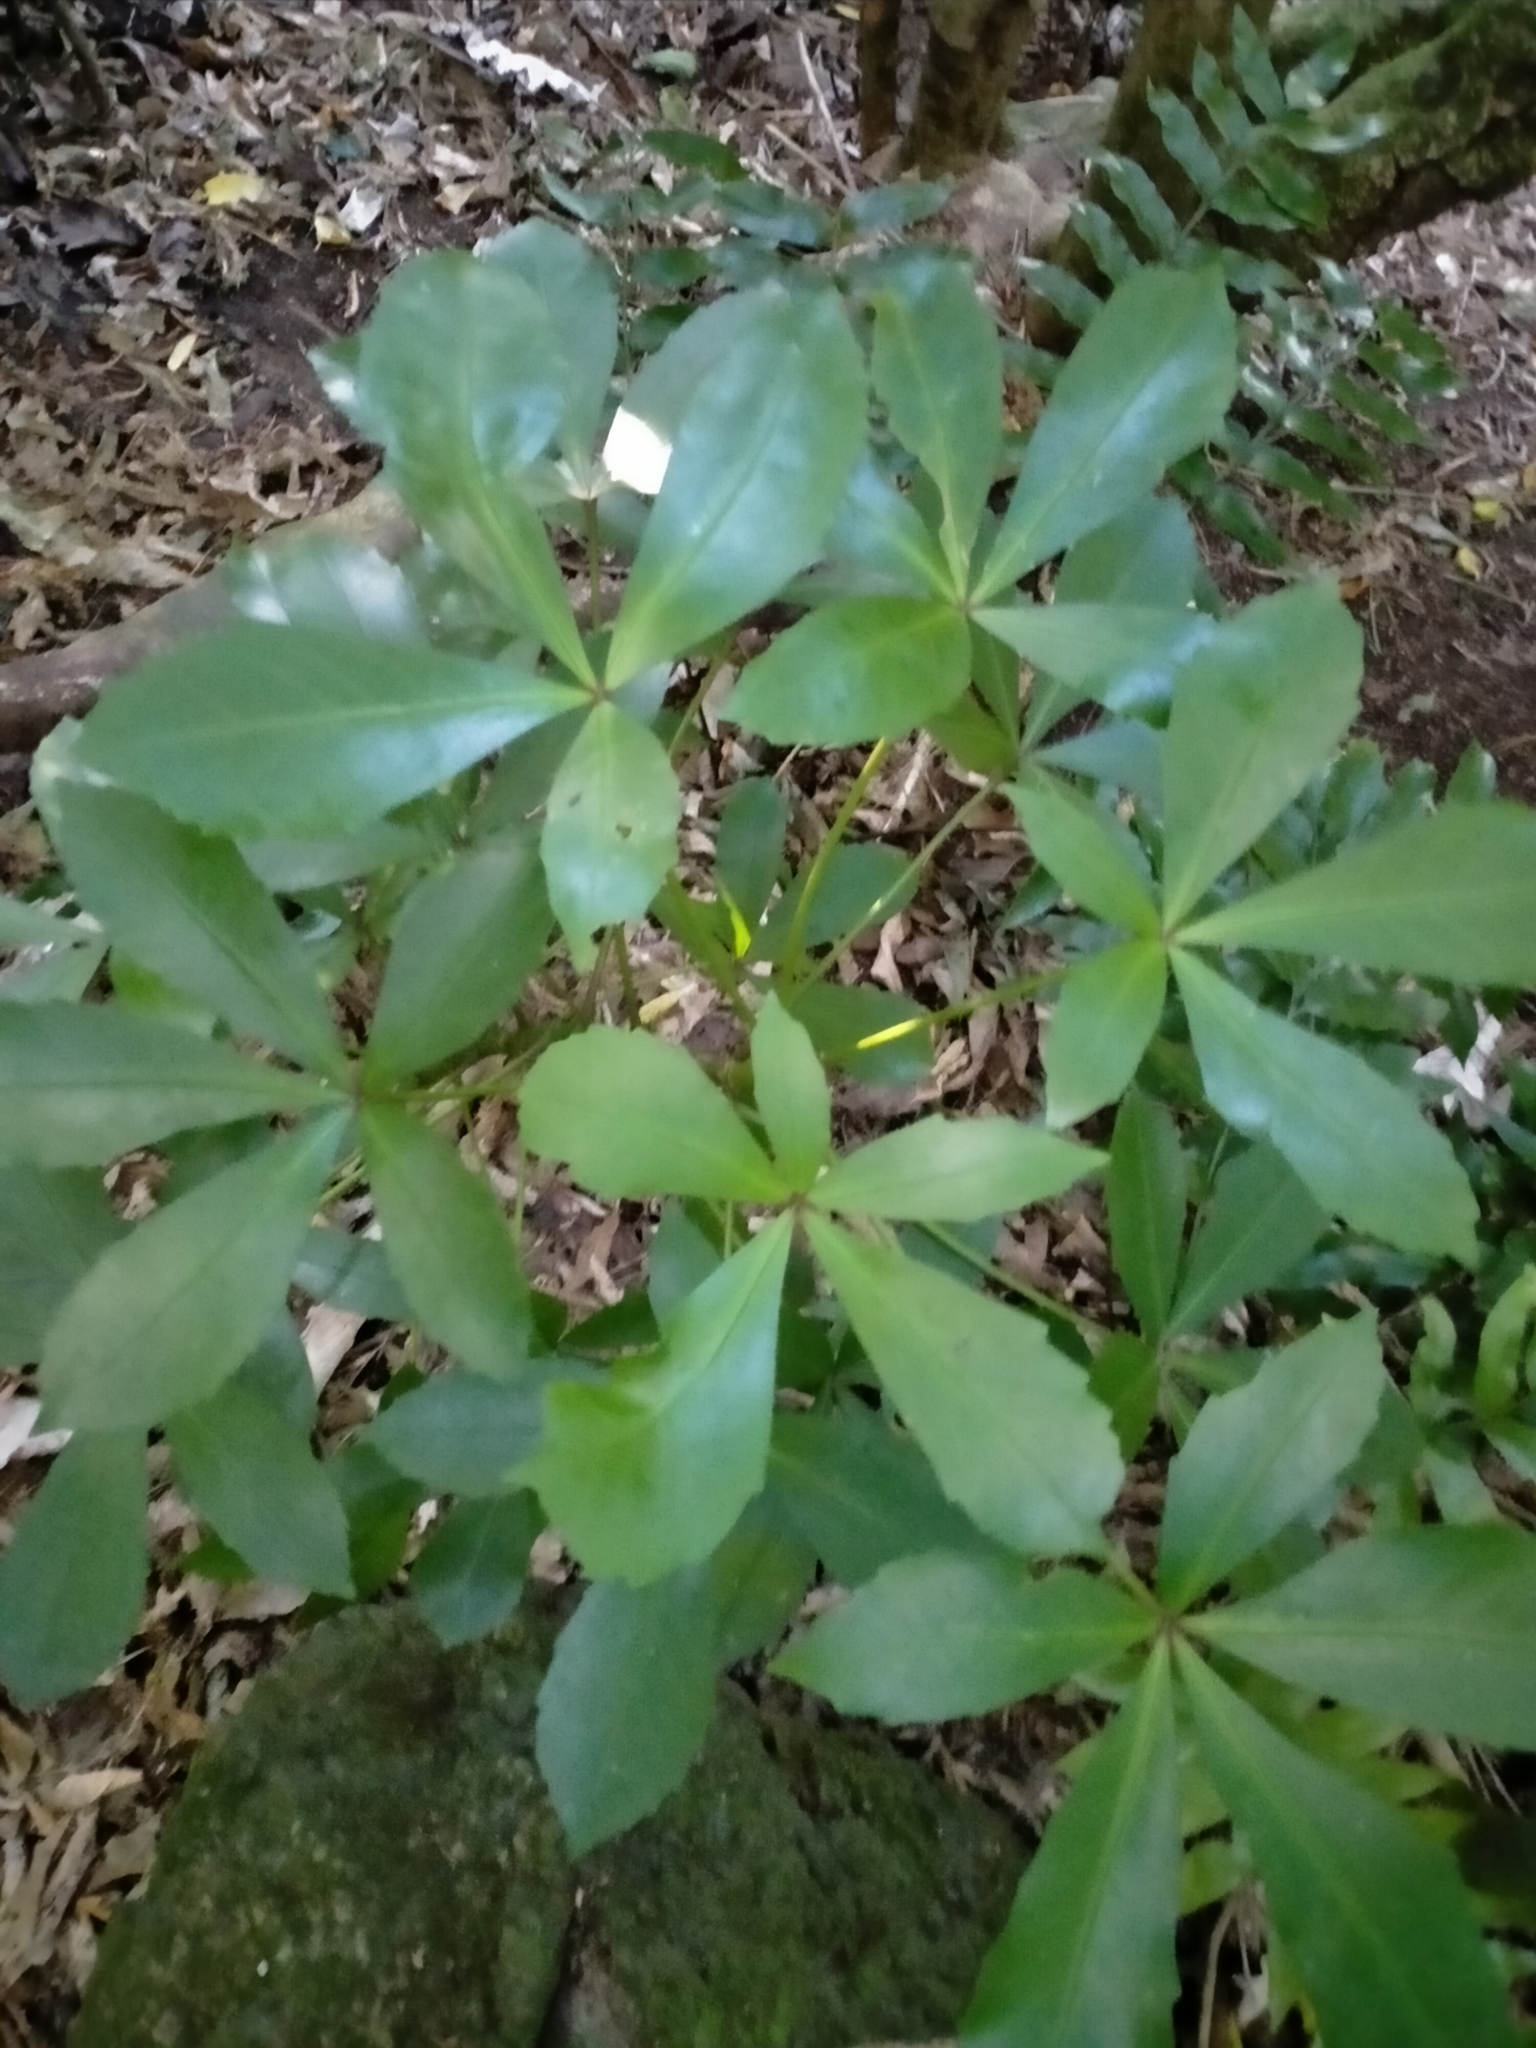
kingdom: Plantae
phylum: Tracheophyta
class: Magnoliopsida
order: Apiales
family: Araliaceae
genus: Pseudopanax
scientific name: Pseudopanax lessonii
